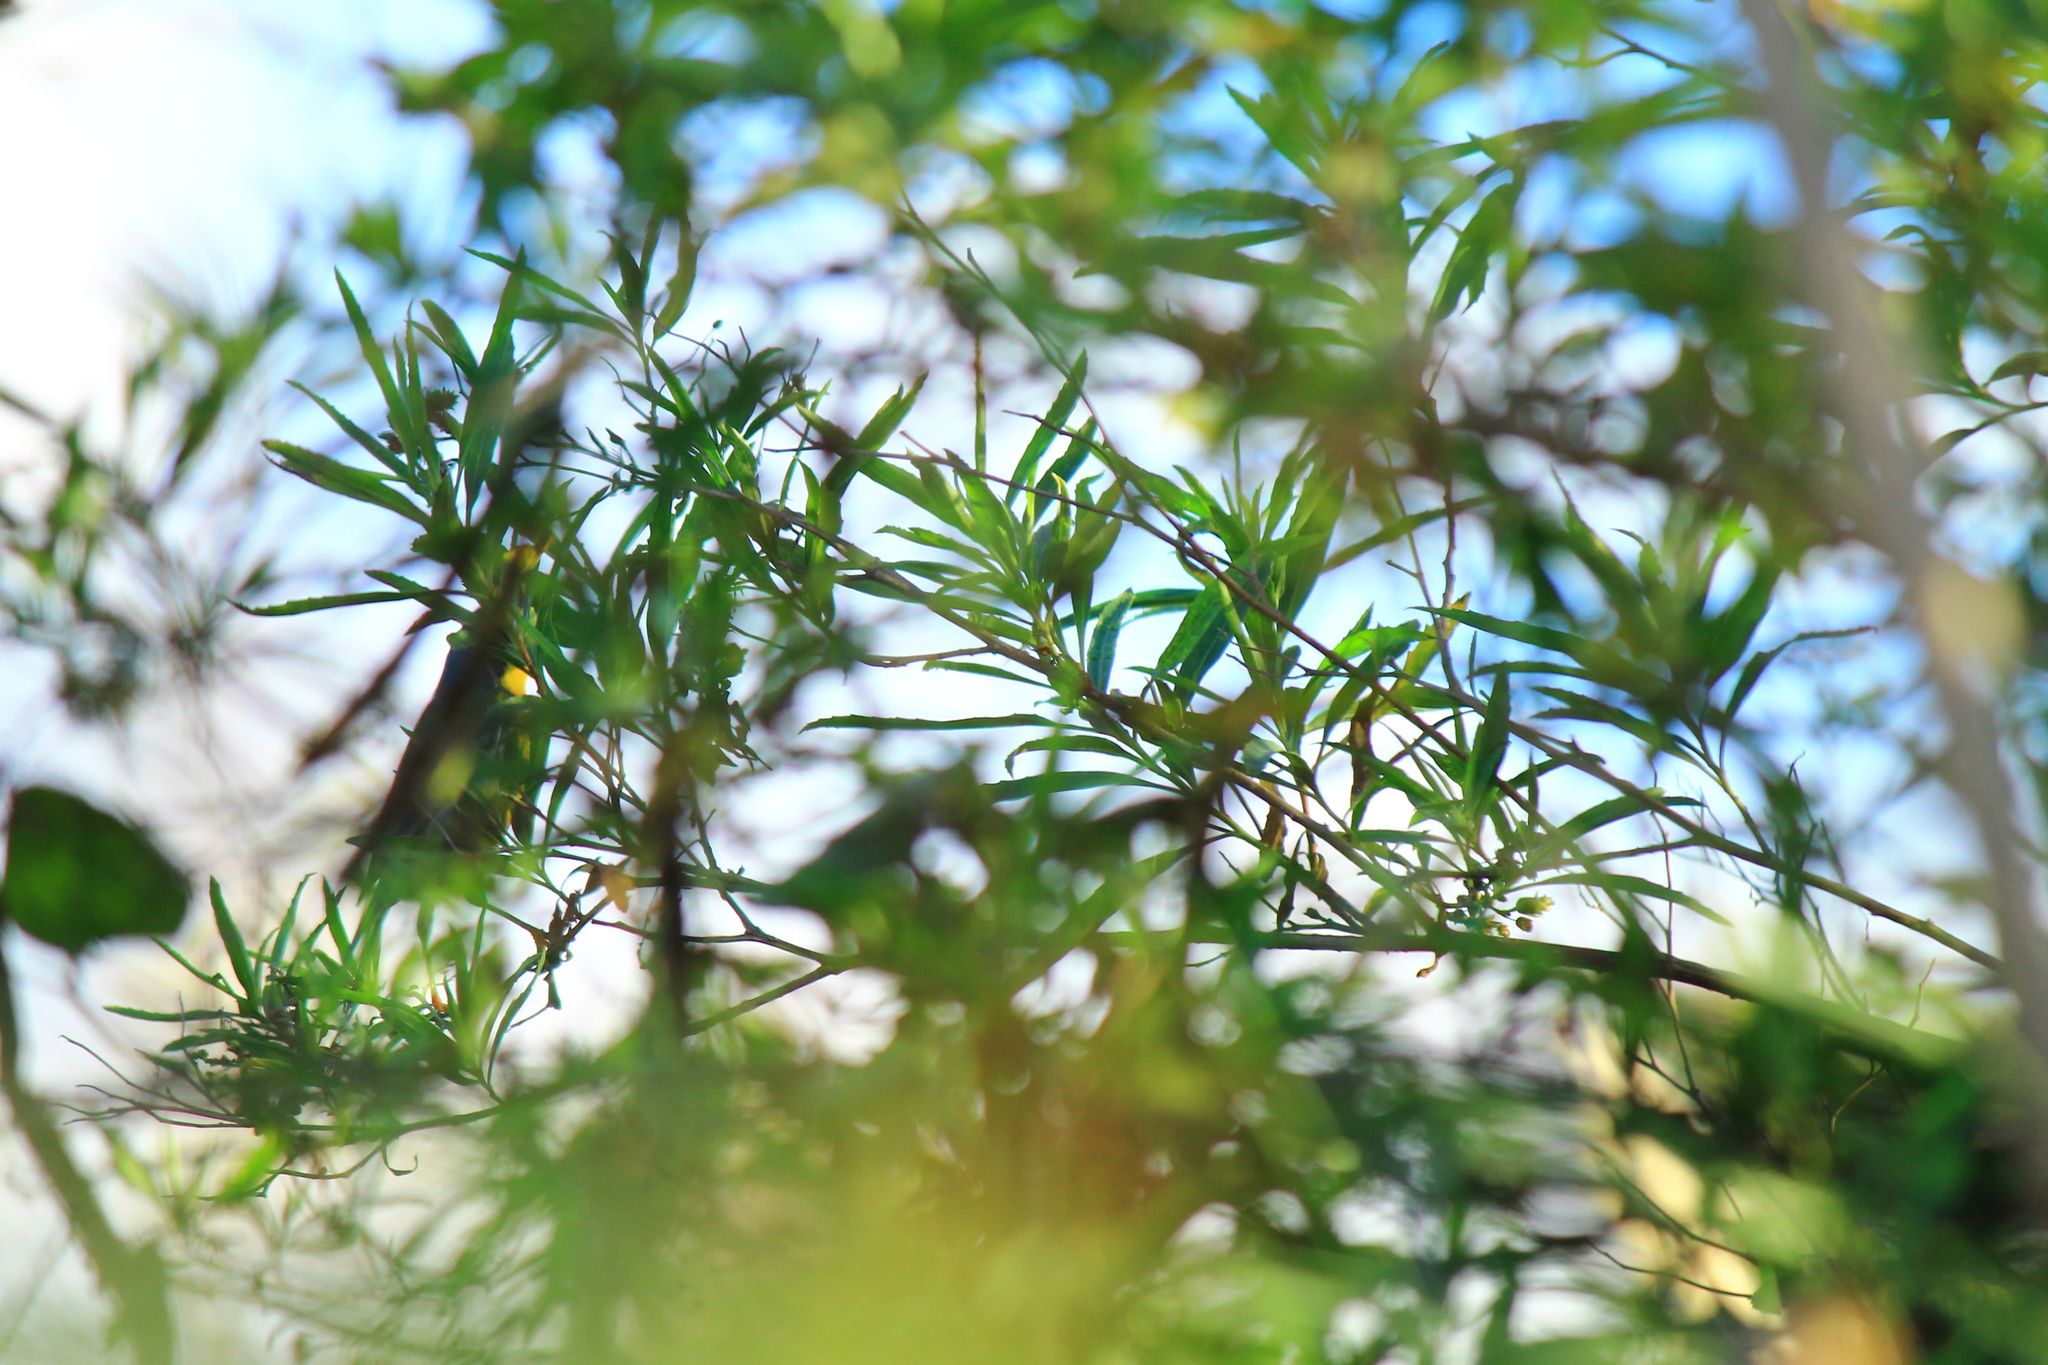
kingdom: Animalia
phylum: Chordata
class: Aves
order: Passeriformes
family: Parulidae
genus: Setophaga
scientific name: Setophaga pitiayumi
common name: Tropical parula
